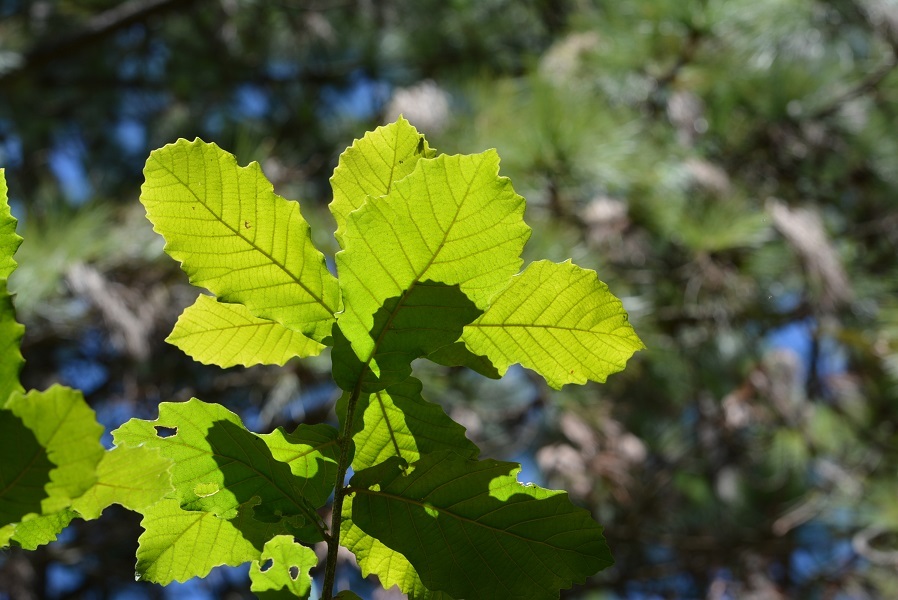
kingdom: Plantae
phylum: Tracheophyta
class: Magnoliopsida
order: Fagales
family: Fagaceae
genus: Quercus
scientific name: Quercus segoviensis
